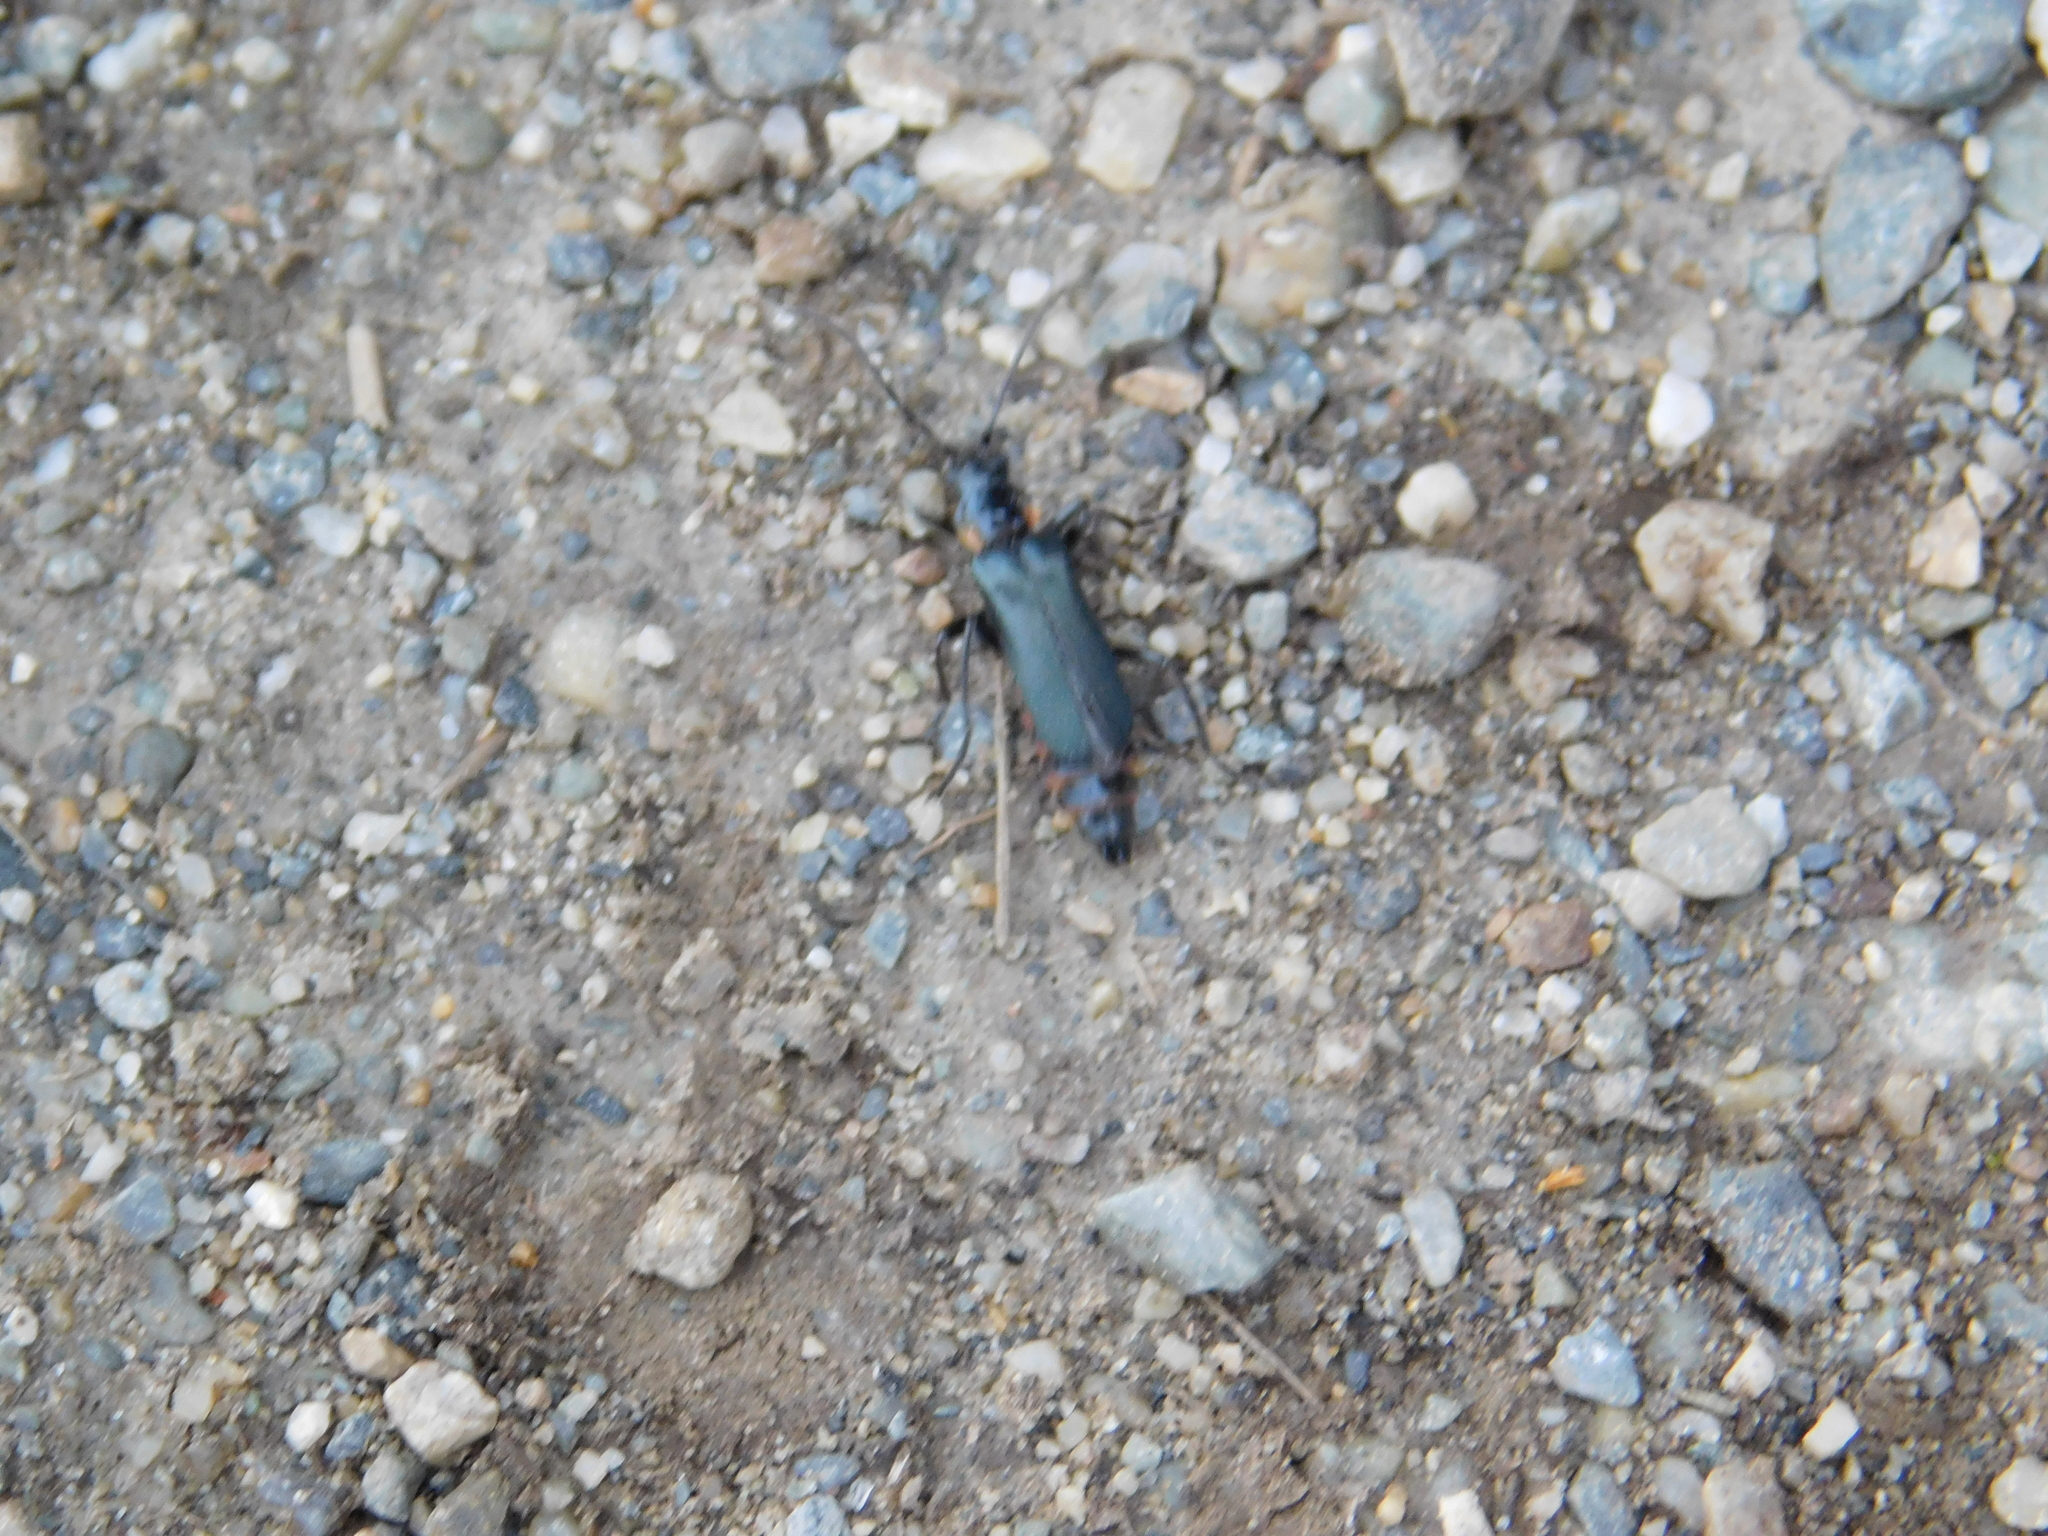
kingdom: Animalia
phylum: Arthropoda
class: Insecta
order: Coleoptera
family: Cantharidae
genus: Chauliognathus
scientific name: Chauliognathus
